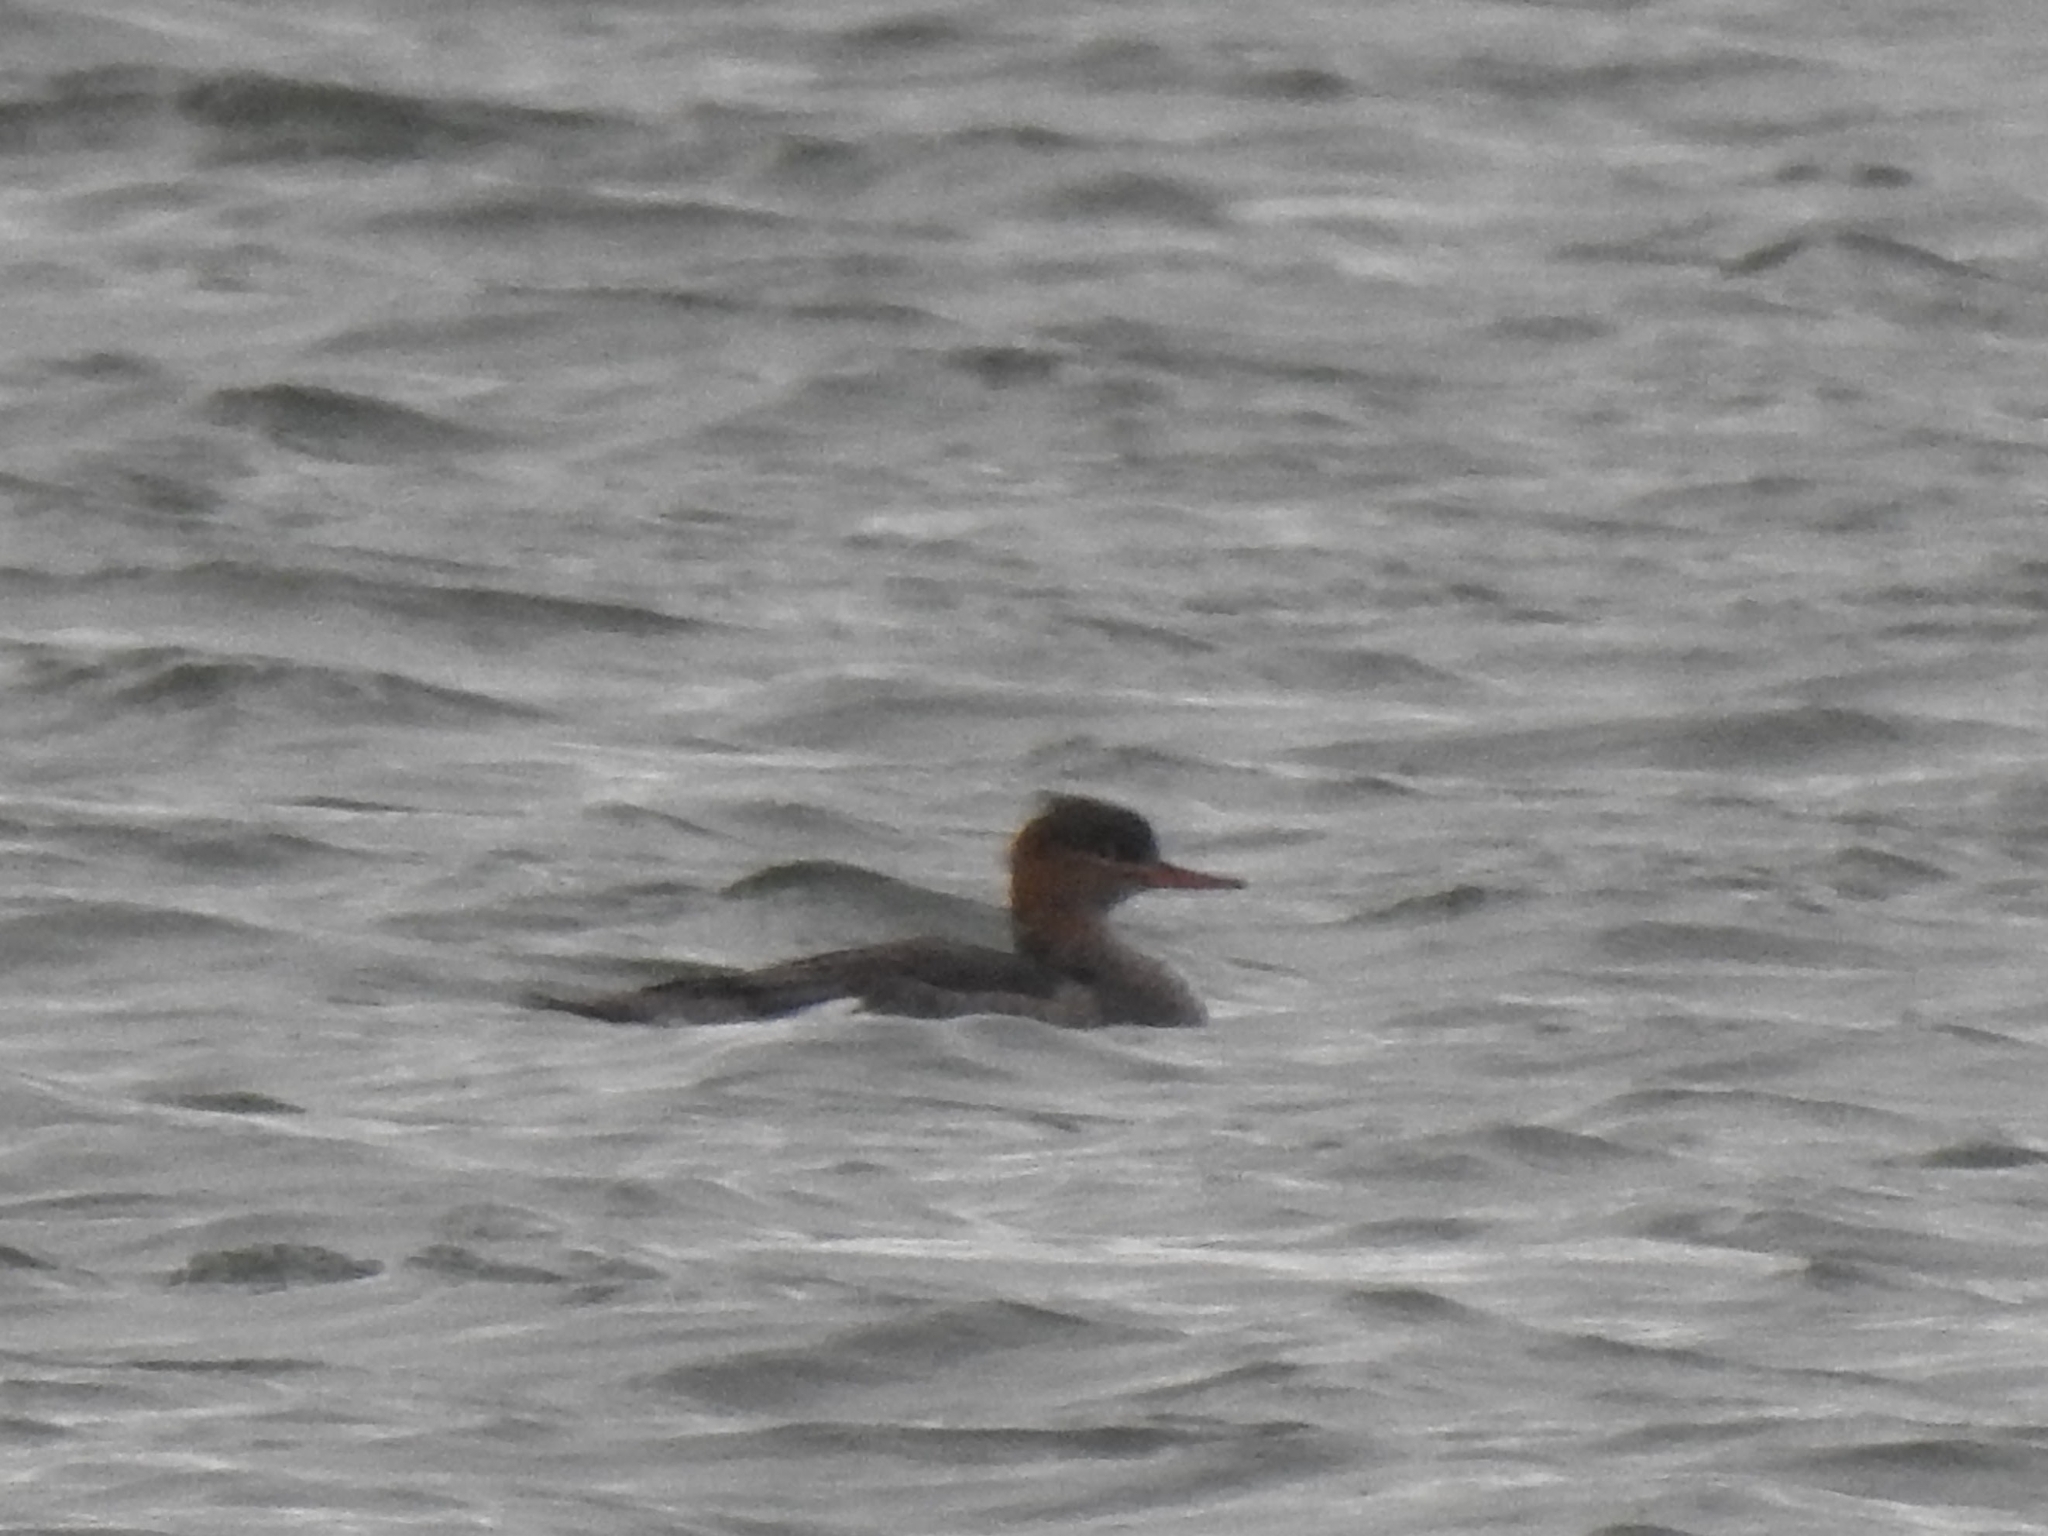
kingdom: Animalia
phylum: Chordata
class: Aves
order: Anseriformes
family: Anatidae
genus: Mergus
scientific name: Mergus serrator
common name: Red-breasted merganser
